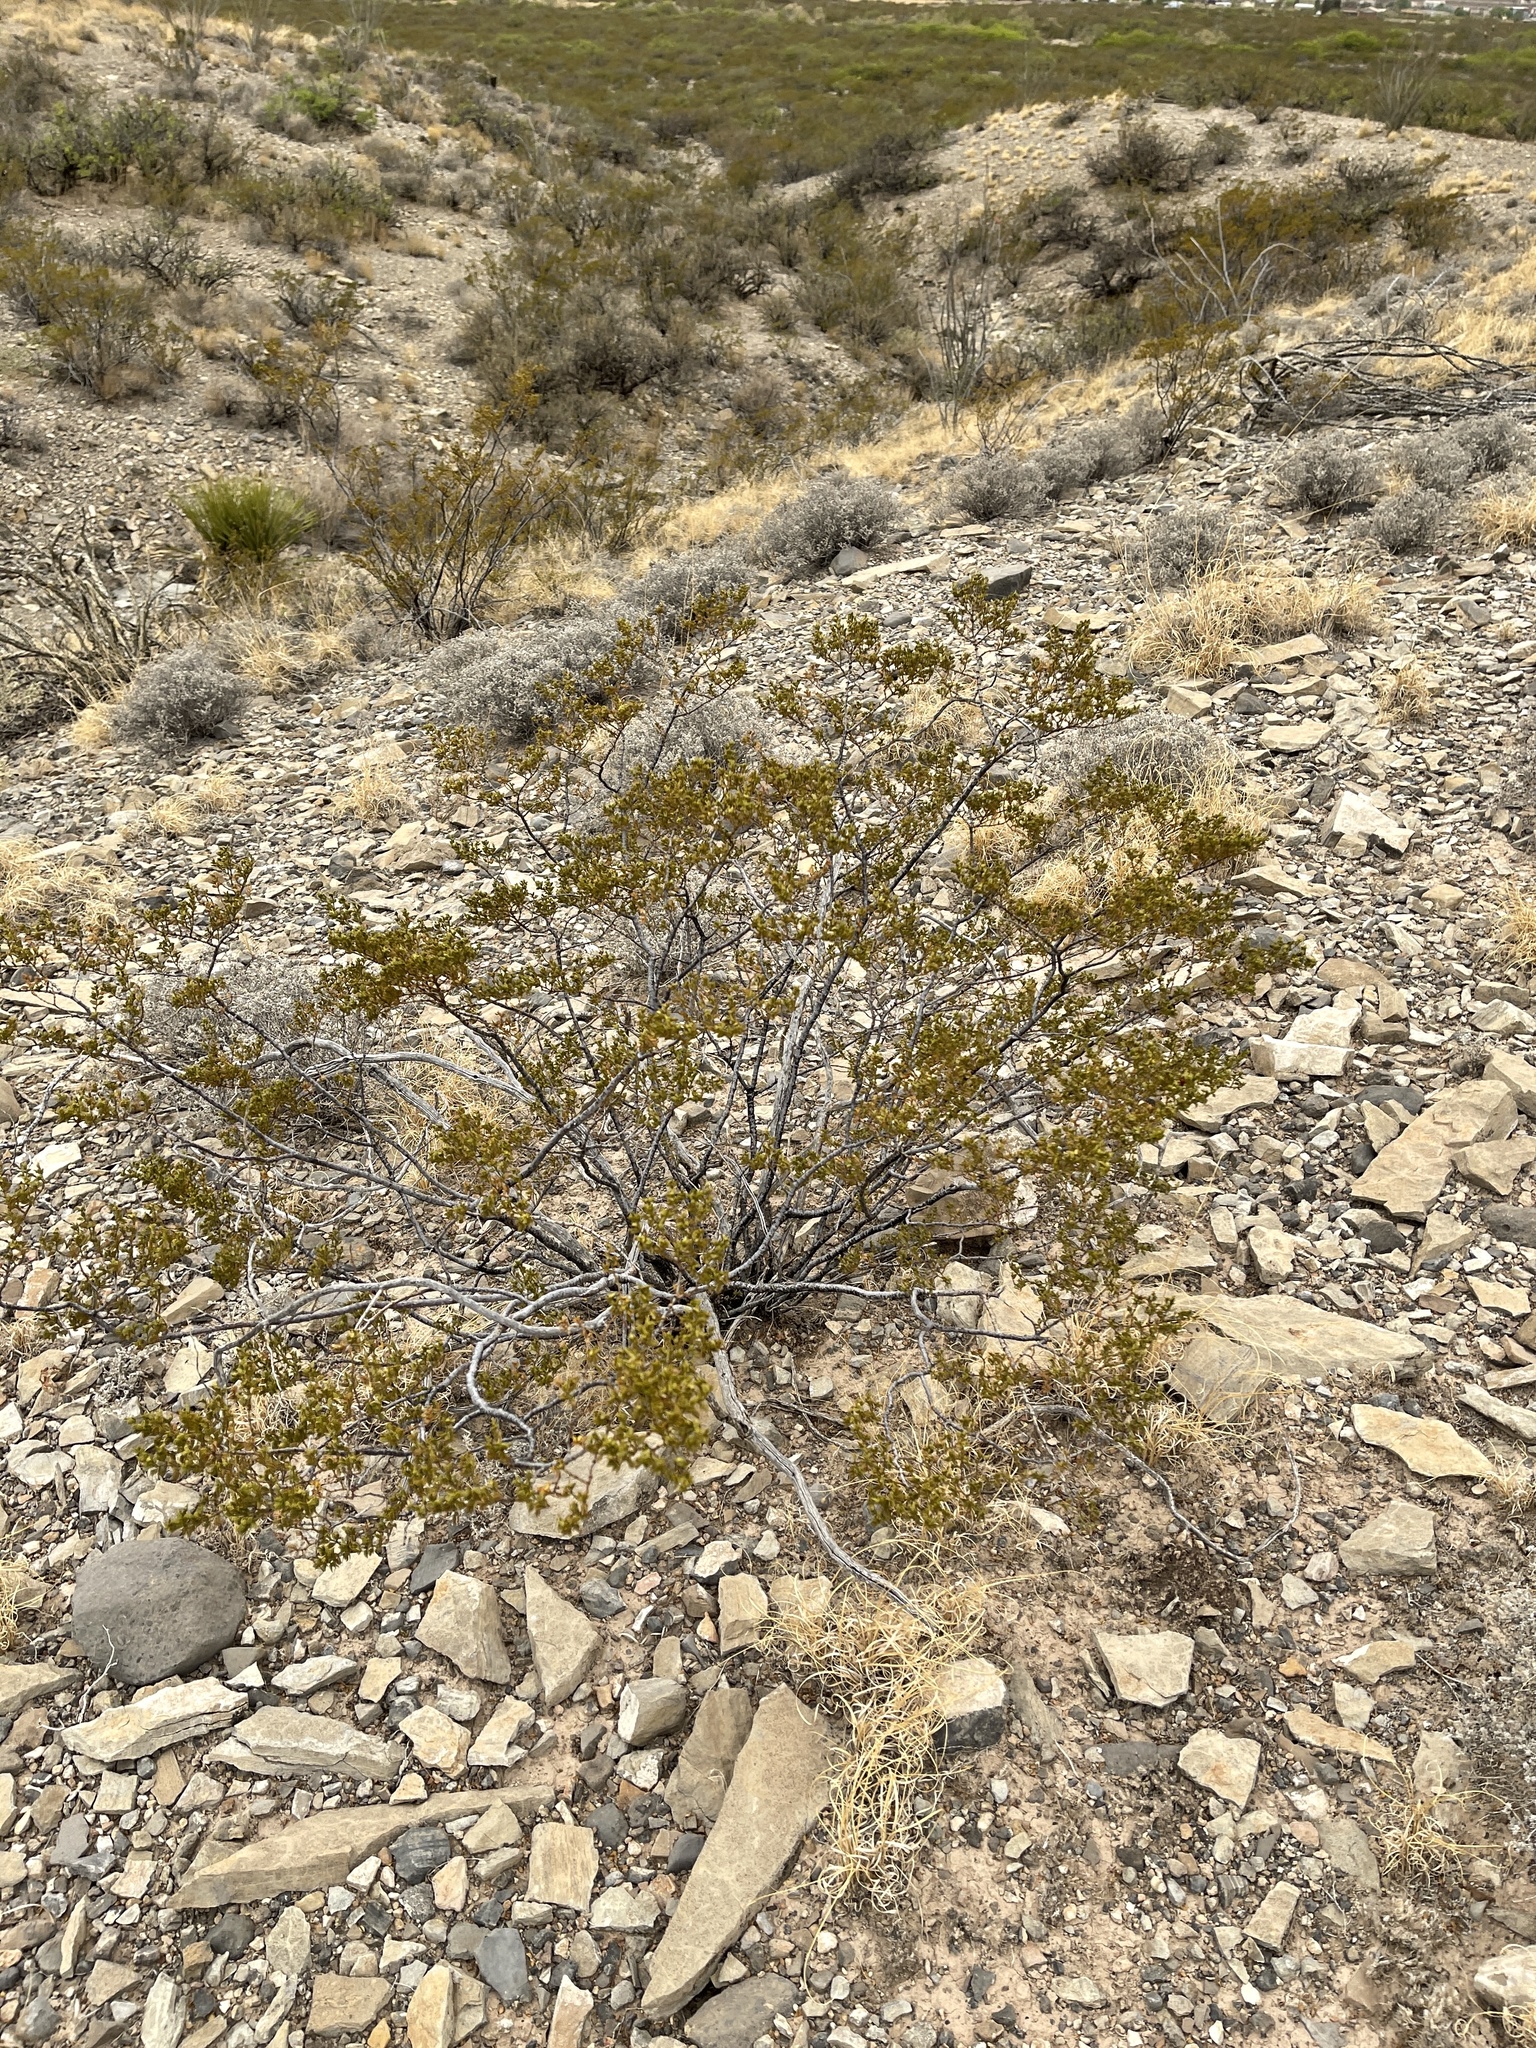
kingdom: Plantae
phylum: Tracheophyta
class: Magnoliopsida
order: Zygophyllales
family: Zygophyllaceae
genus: Larrea
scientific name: Larrea tridentata
